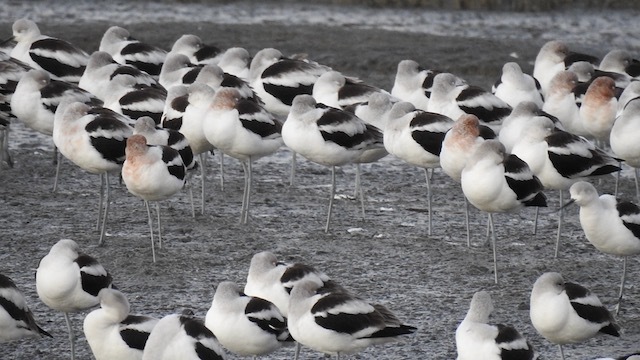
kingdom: Animalia
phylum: Chordata
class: Aves
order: Charadriiformes
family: Recurvirostridae
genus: Recurvirostra
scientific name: Recurvirostra americana
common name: American avocet
